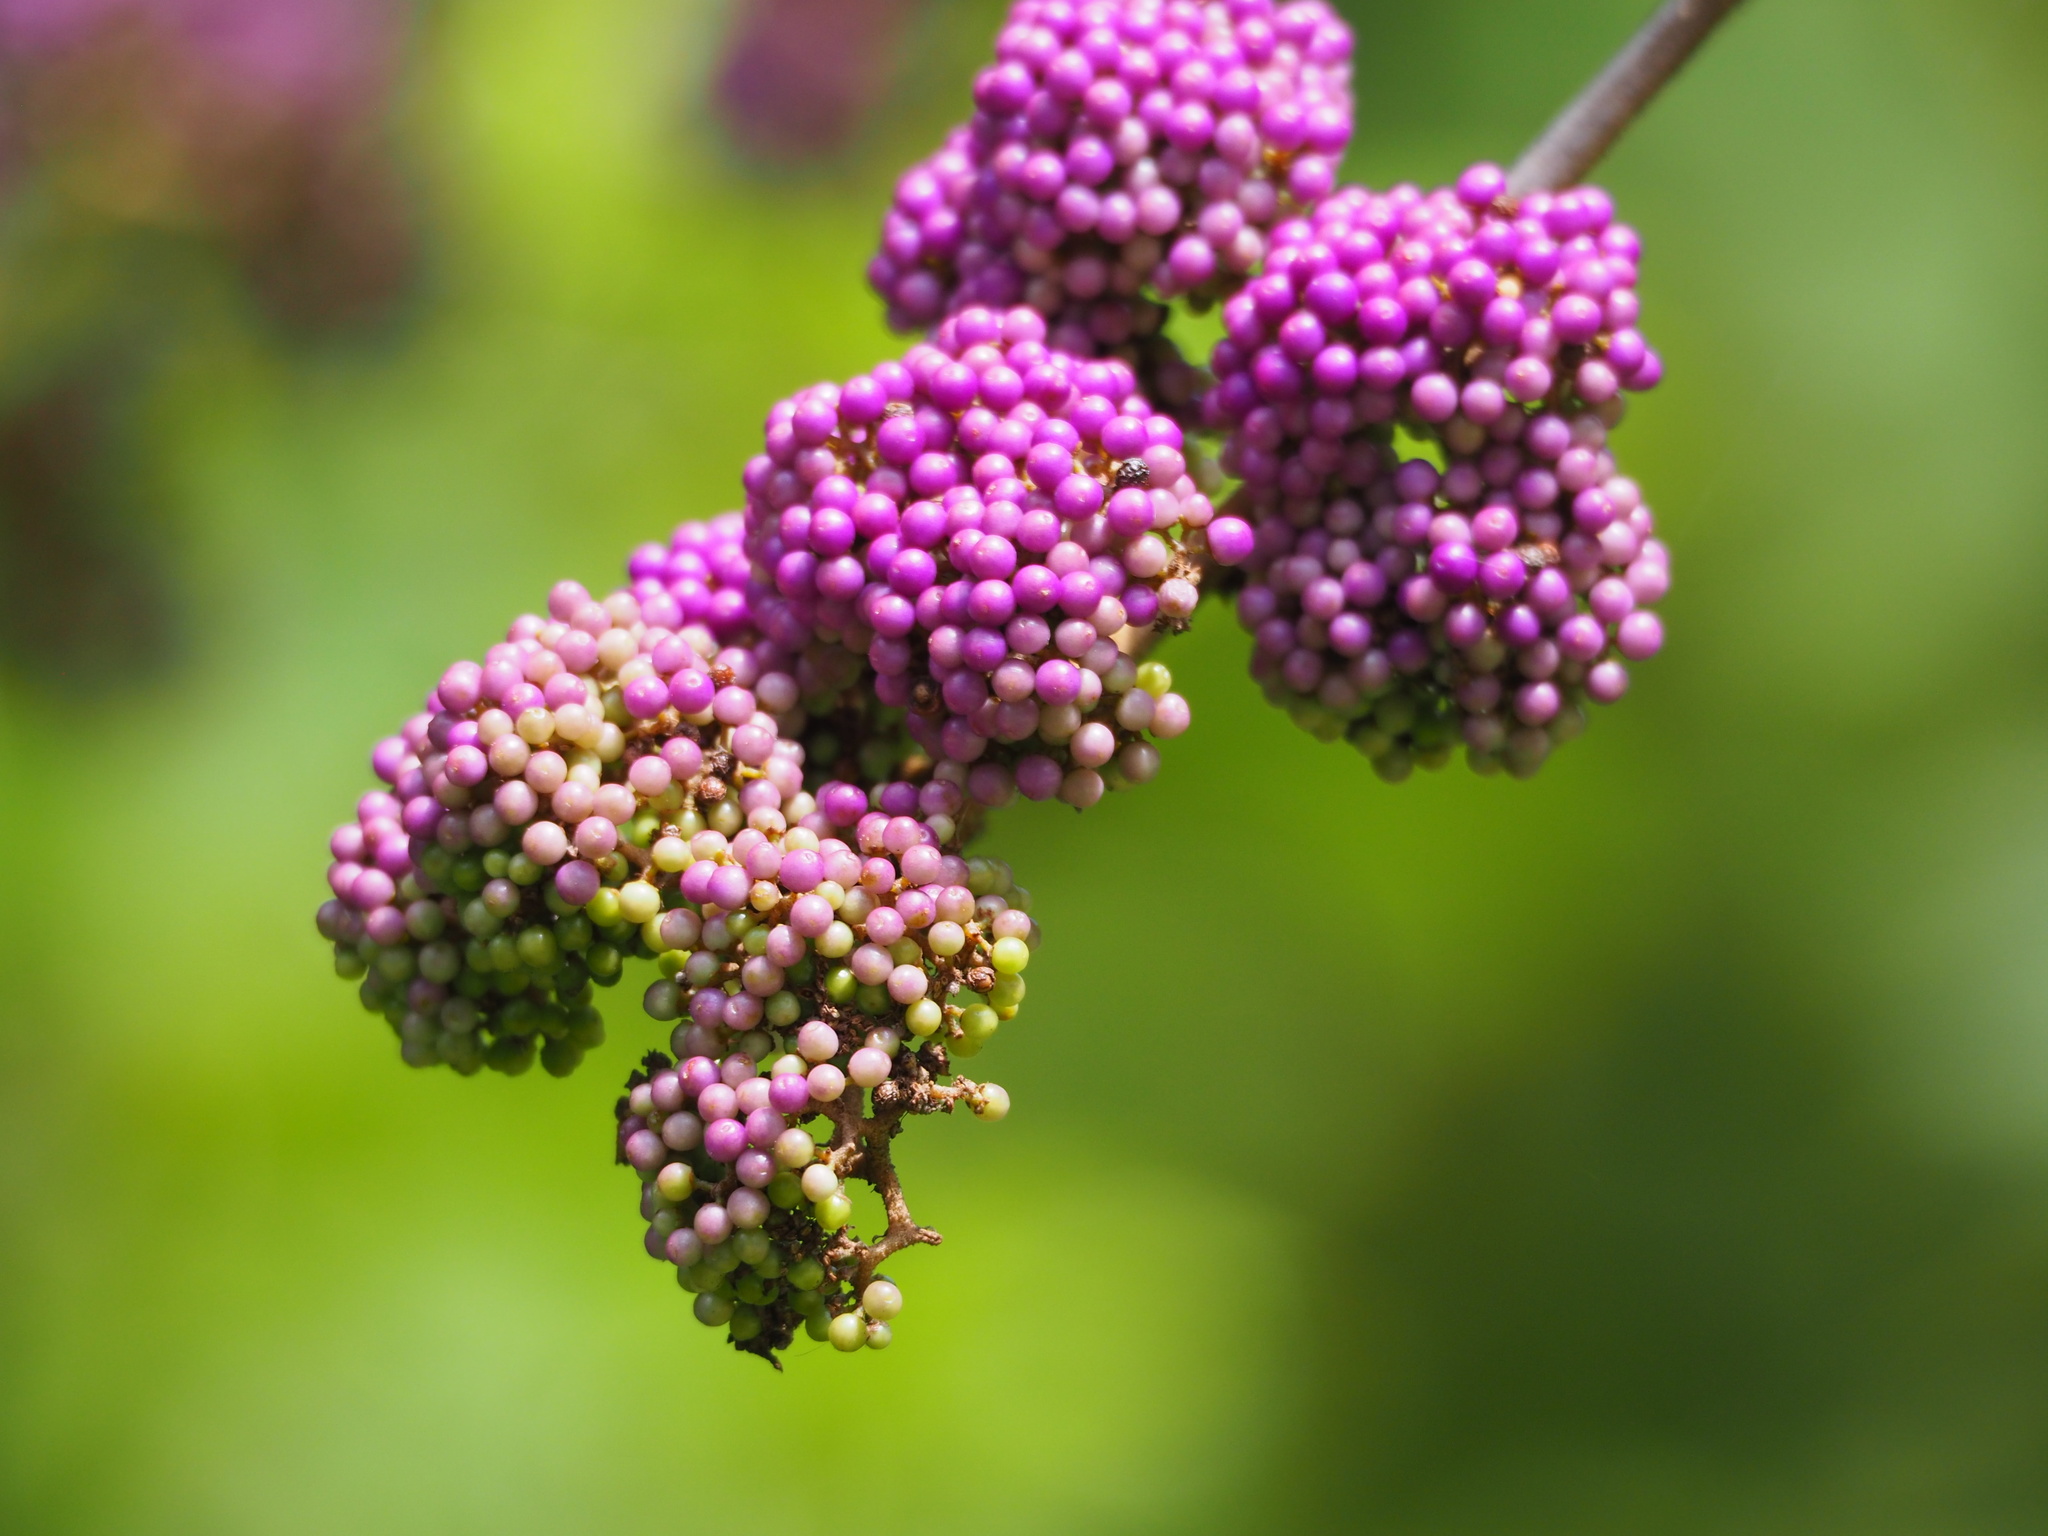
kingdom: Plantae
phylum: Tracheophyta
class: Magnoliopsida
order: Lamiales
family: Lamiaceae
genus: Callicarpa
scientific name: Callicarpa pedunculata
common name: Velvetleaf
